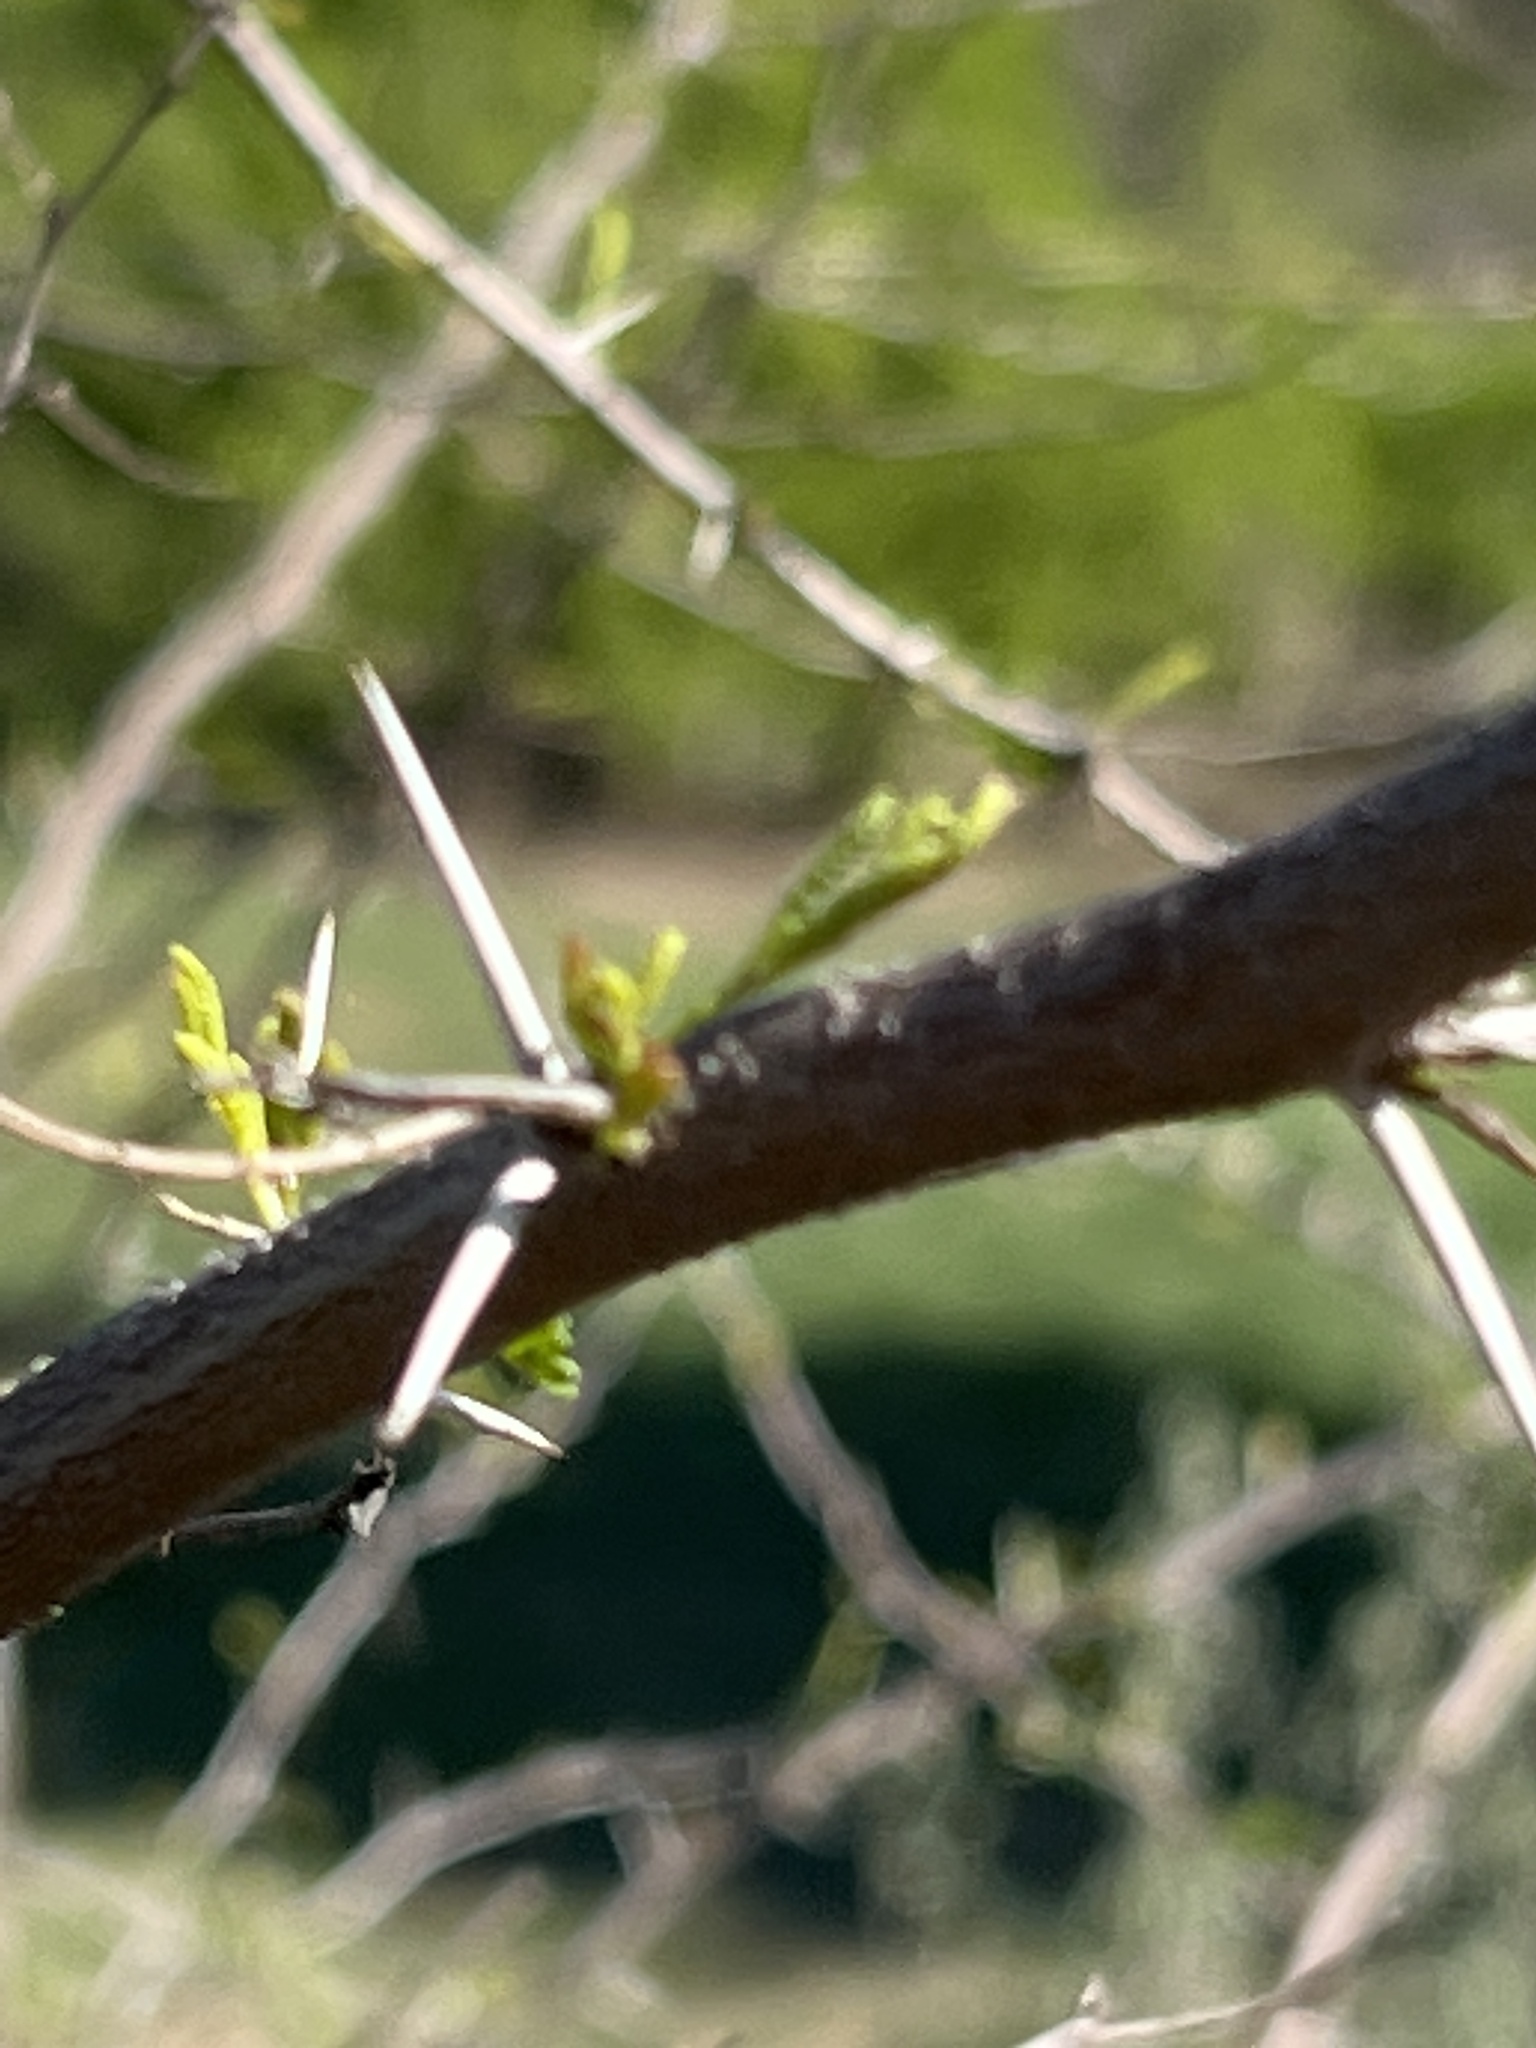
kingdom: Plantae
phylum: Tracheophyta
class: Magnoliopsida
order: Fabales
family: Fabaceae
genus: Vachellia
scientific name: Vachellia farnesiana
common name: Sweet acacia
